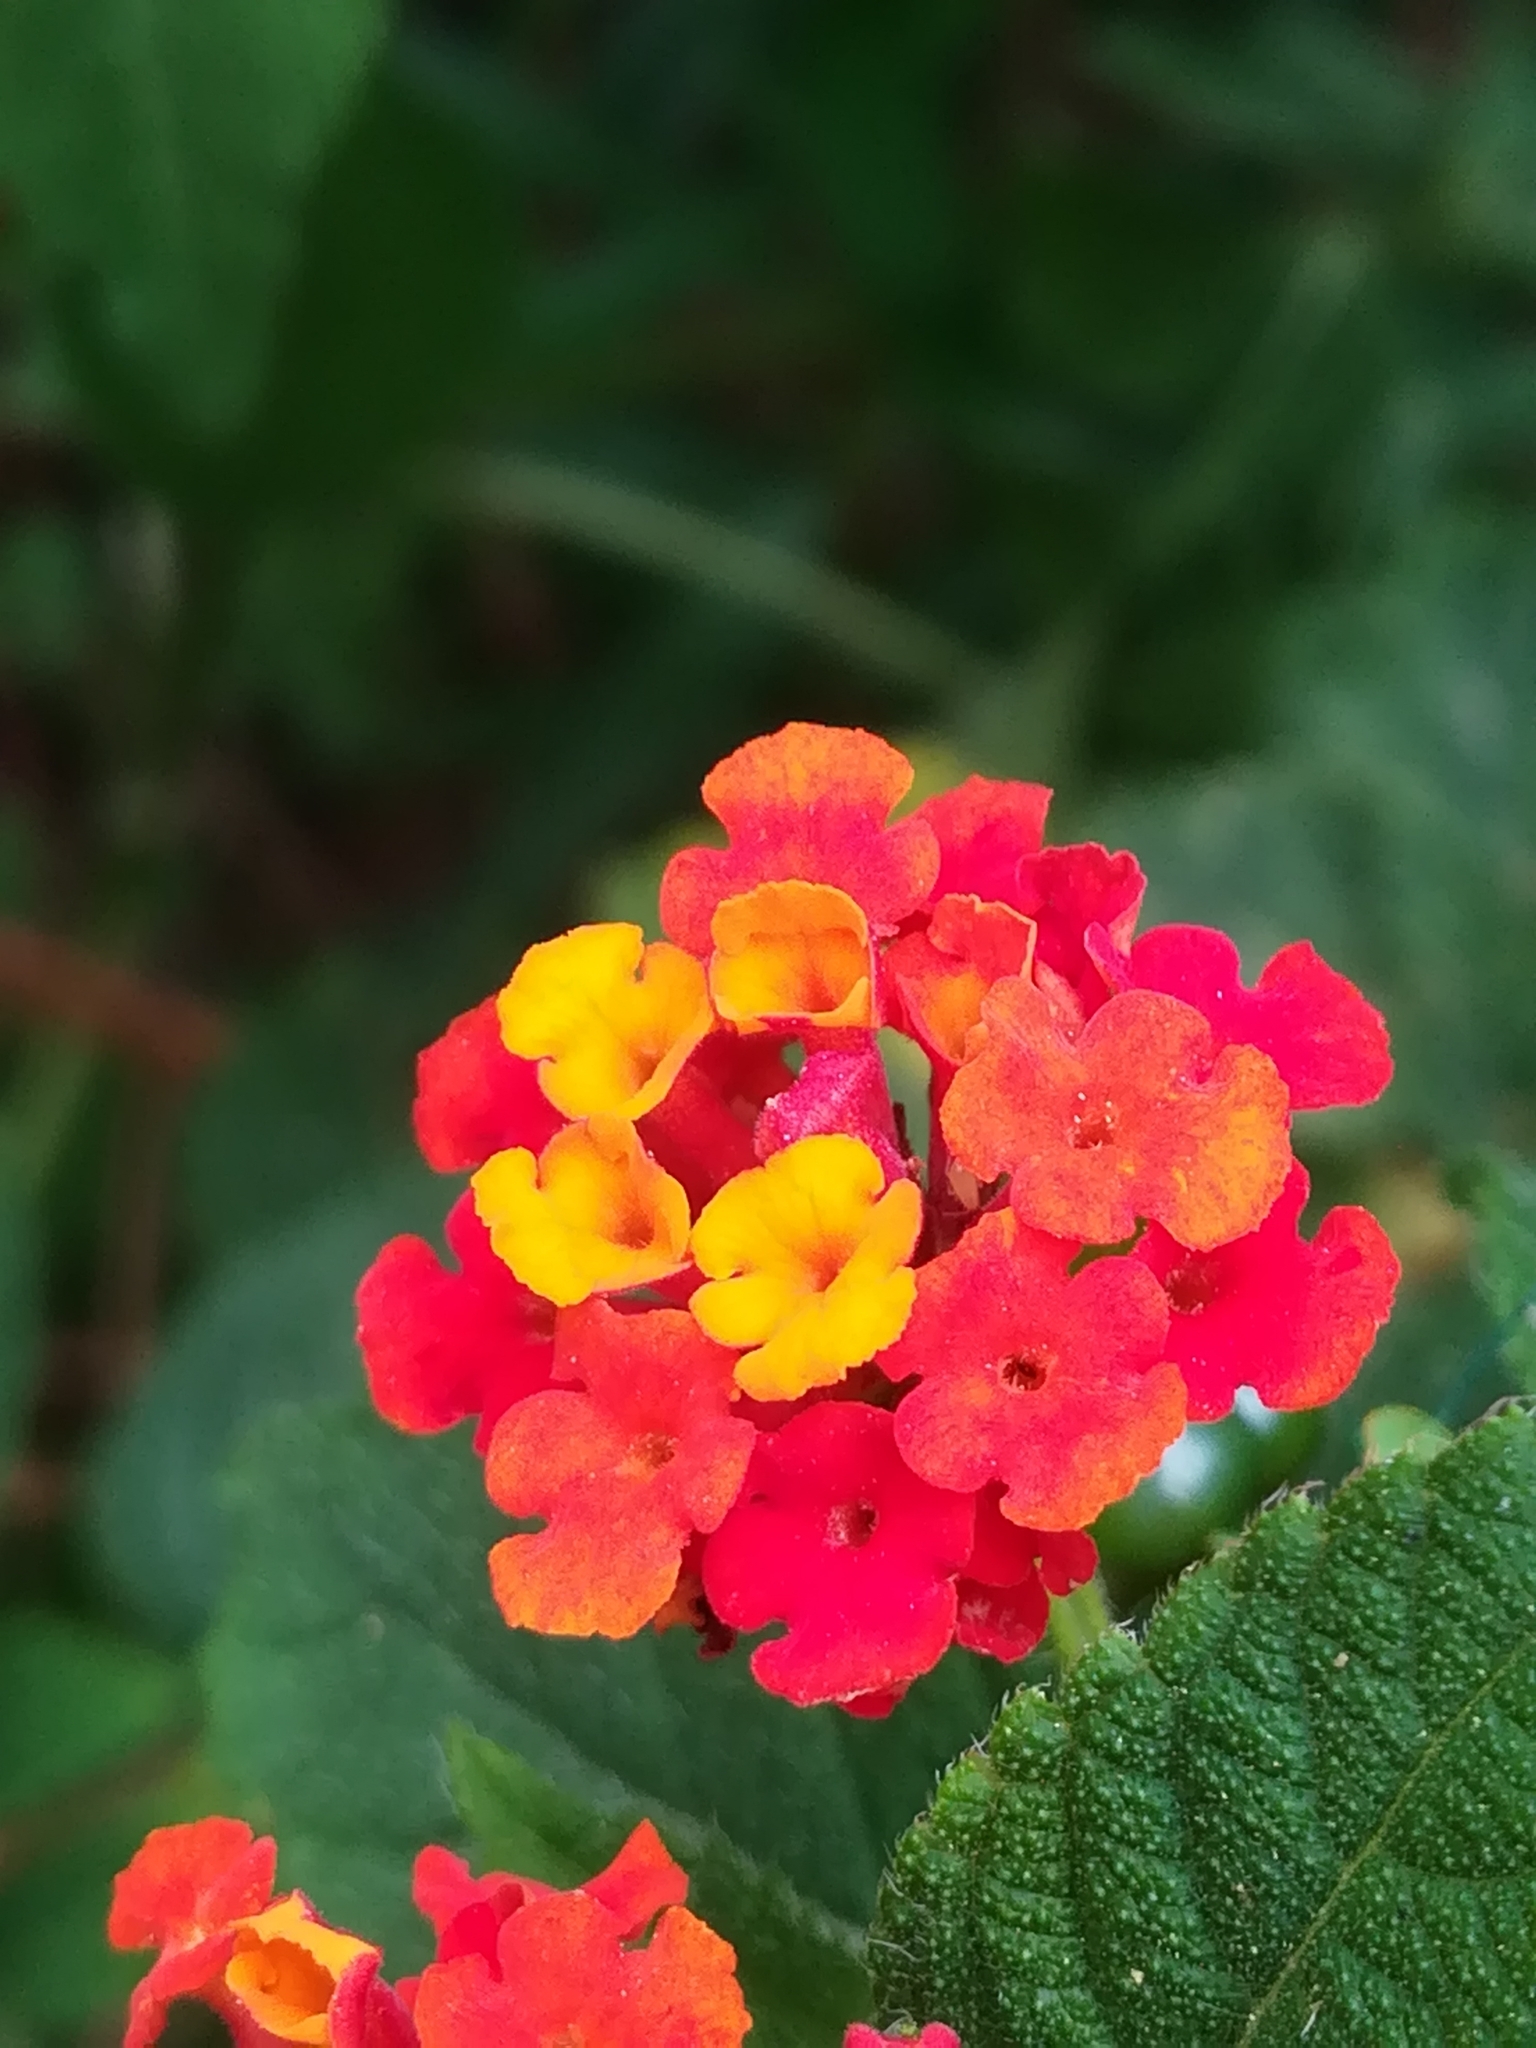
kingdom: Plantae
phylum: Tracheophyta
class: Magnoliopsida
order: Lamiales
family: Verbenaceae
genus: Lantana
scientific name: Lantana camara
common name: Lantana
